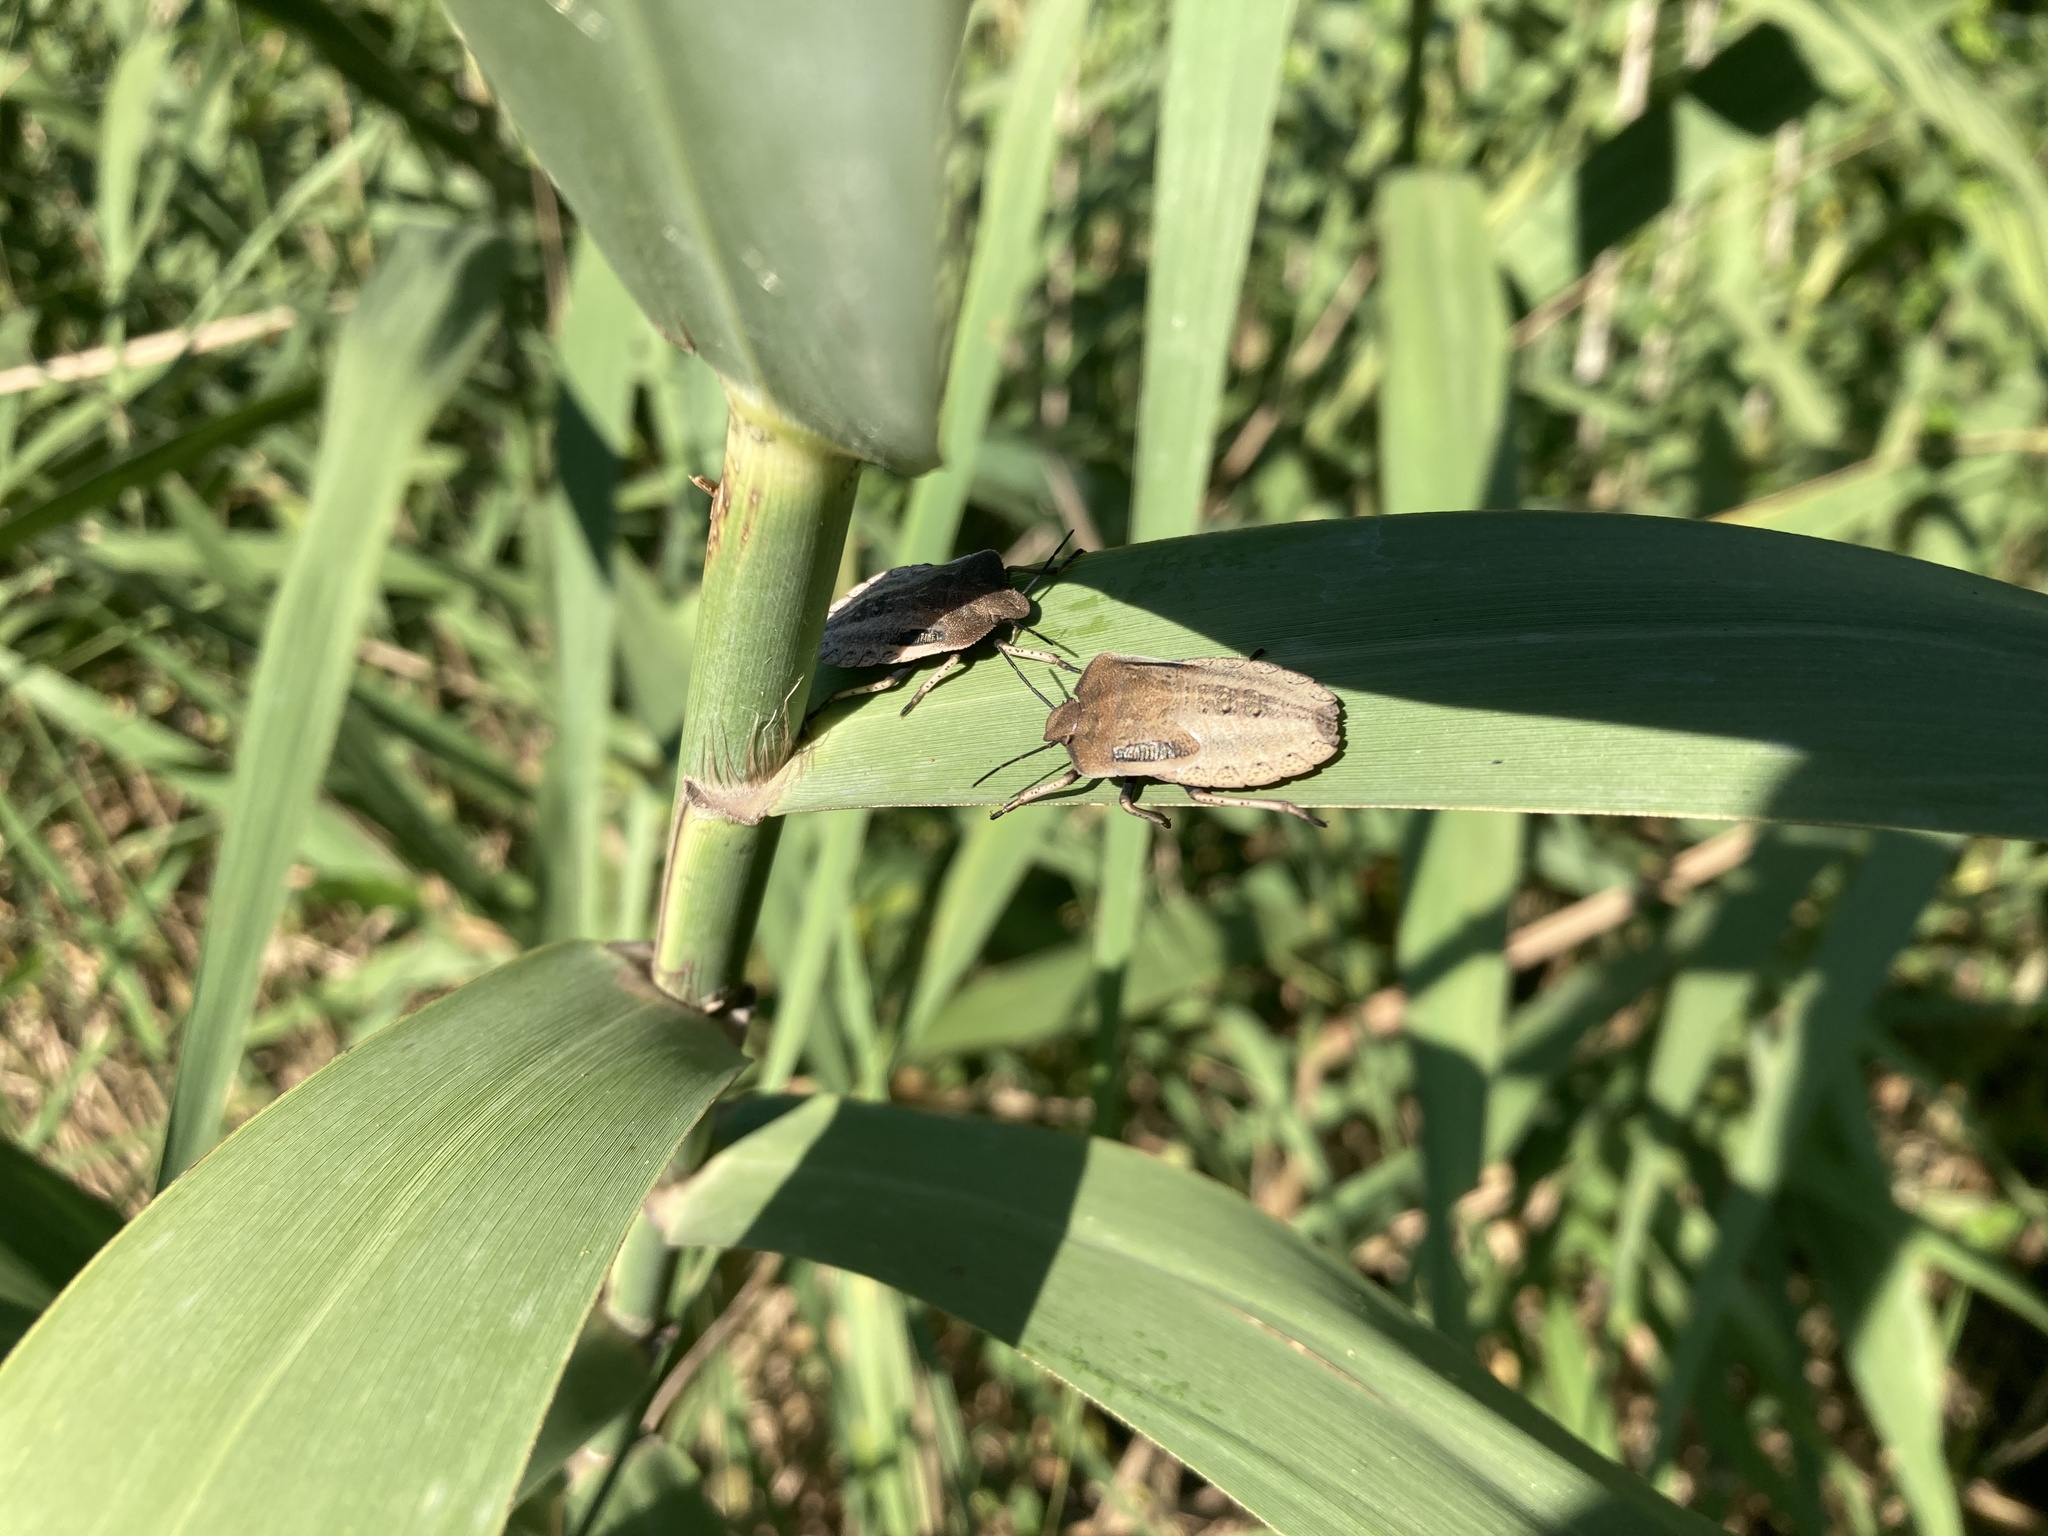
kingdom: Animalia
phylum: Arthropoda
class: Insecta
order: Hemiptera
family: Pentatomidae
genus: Chalcopis
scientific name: Chalcopis glandulosa
